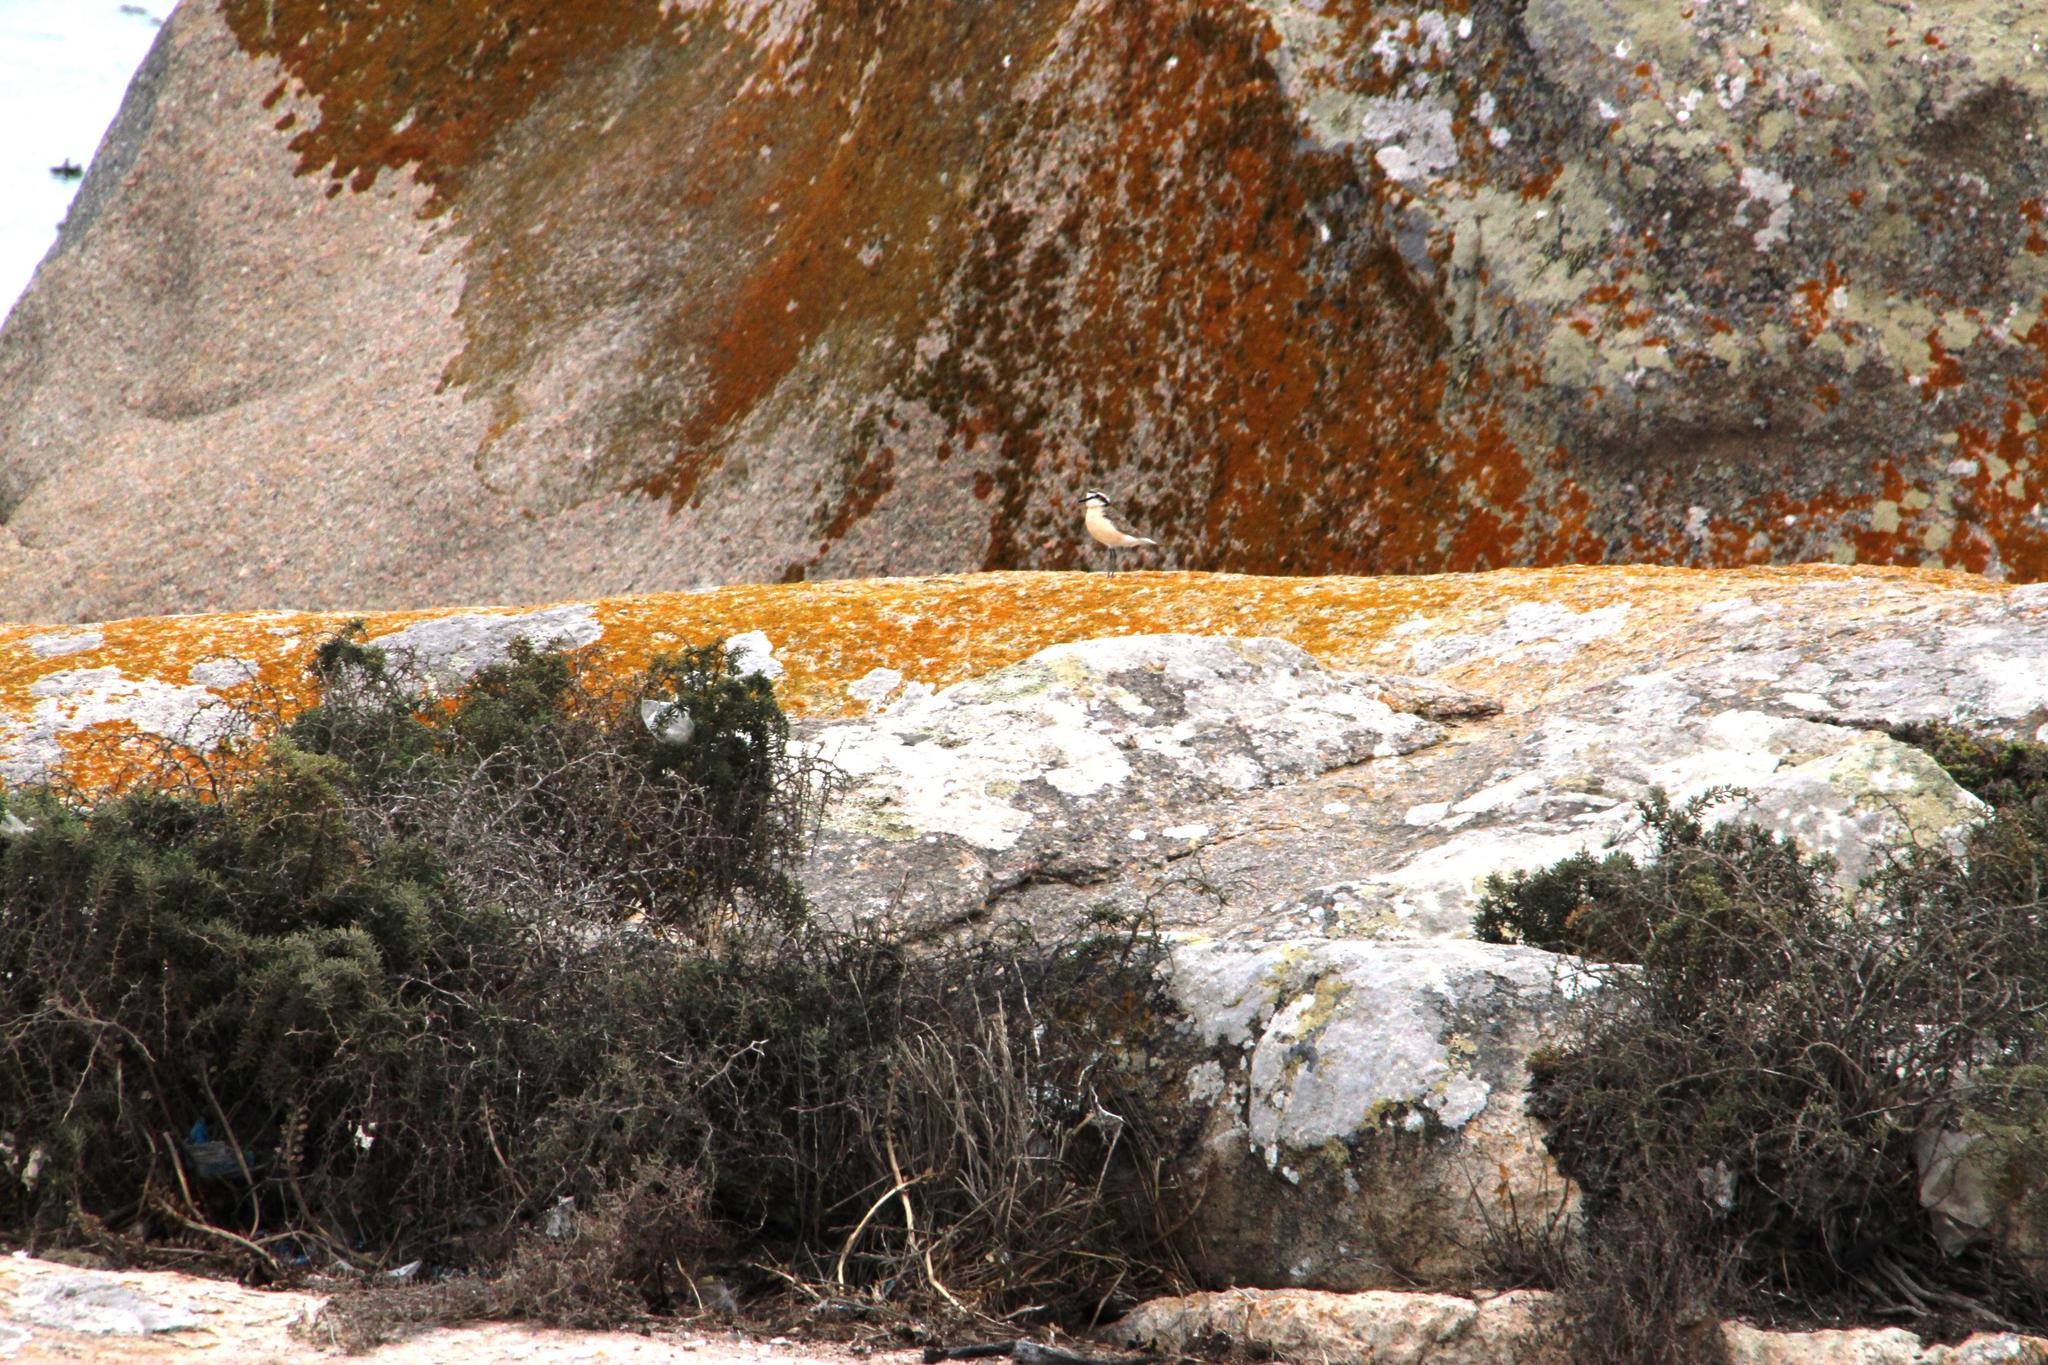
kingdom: Animalia
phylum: Chordata
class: Aves
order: Charadriiformes
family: Charadriidae
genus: Anarhynchus
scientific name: Anarhynchus
